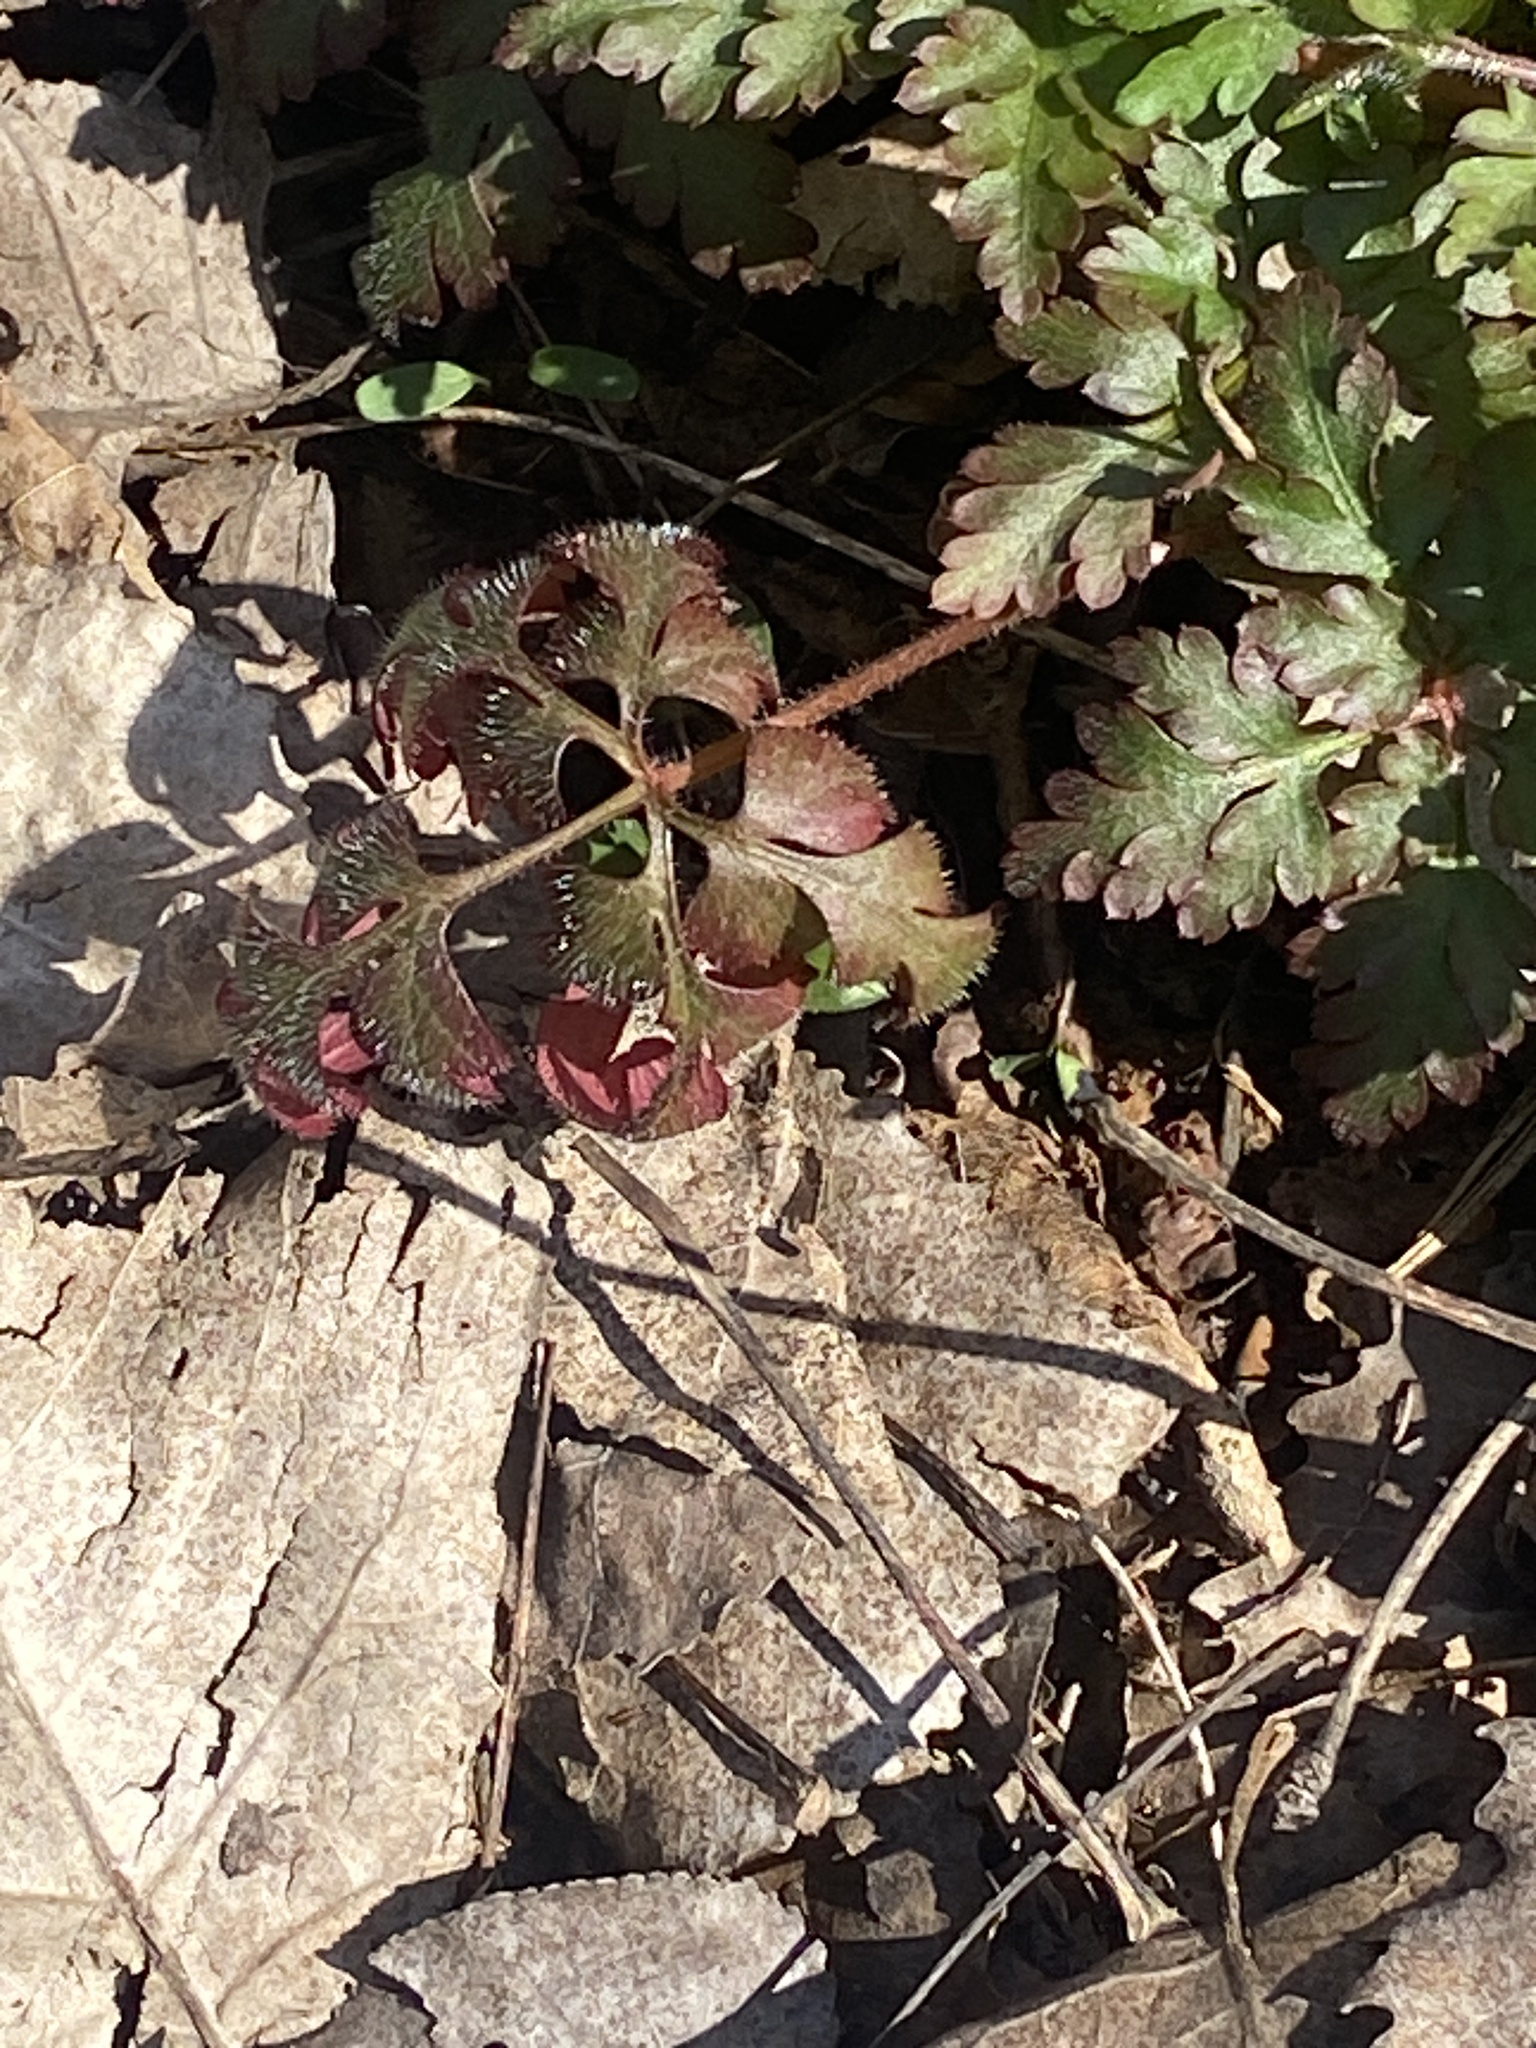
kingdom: Plantae
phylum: Tracheophyta
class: Magnoliopsida
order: Geraniales
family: Geraniaceae
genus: Geranium
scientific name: Geranium robertianum
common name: Herb-robert
